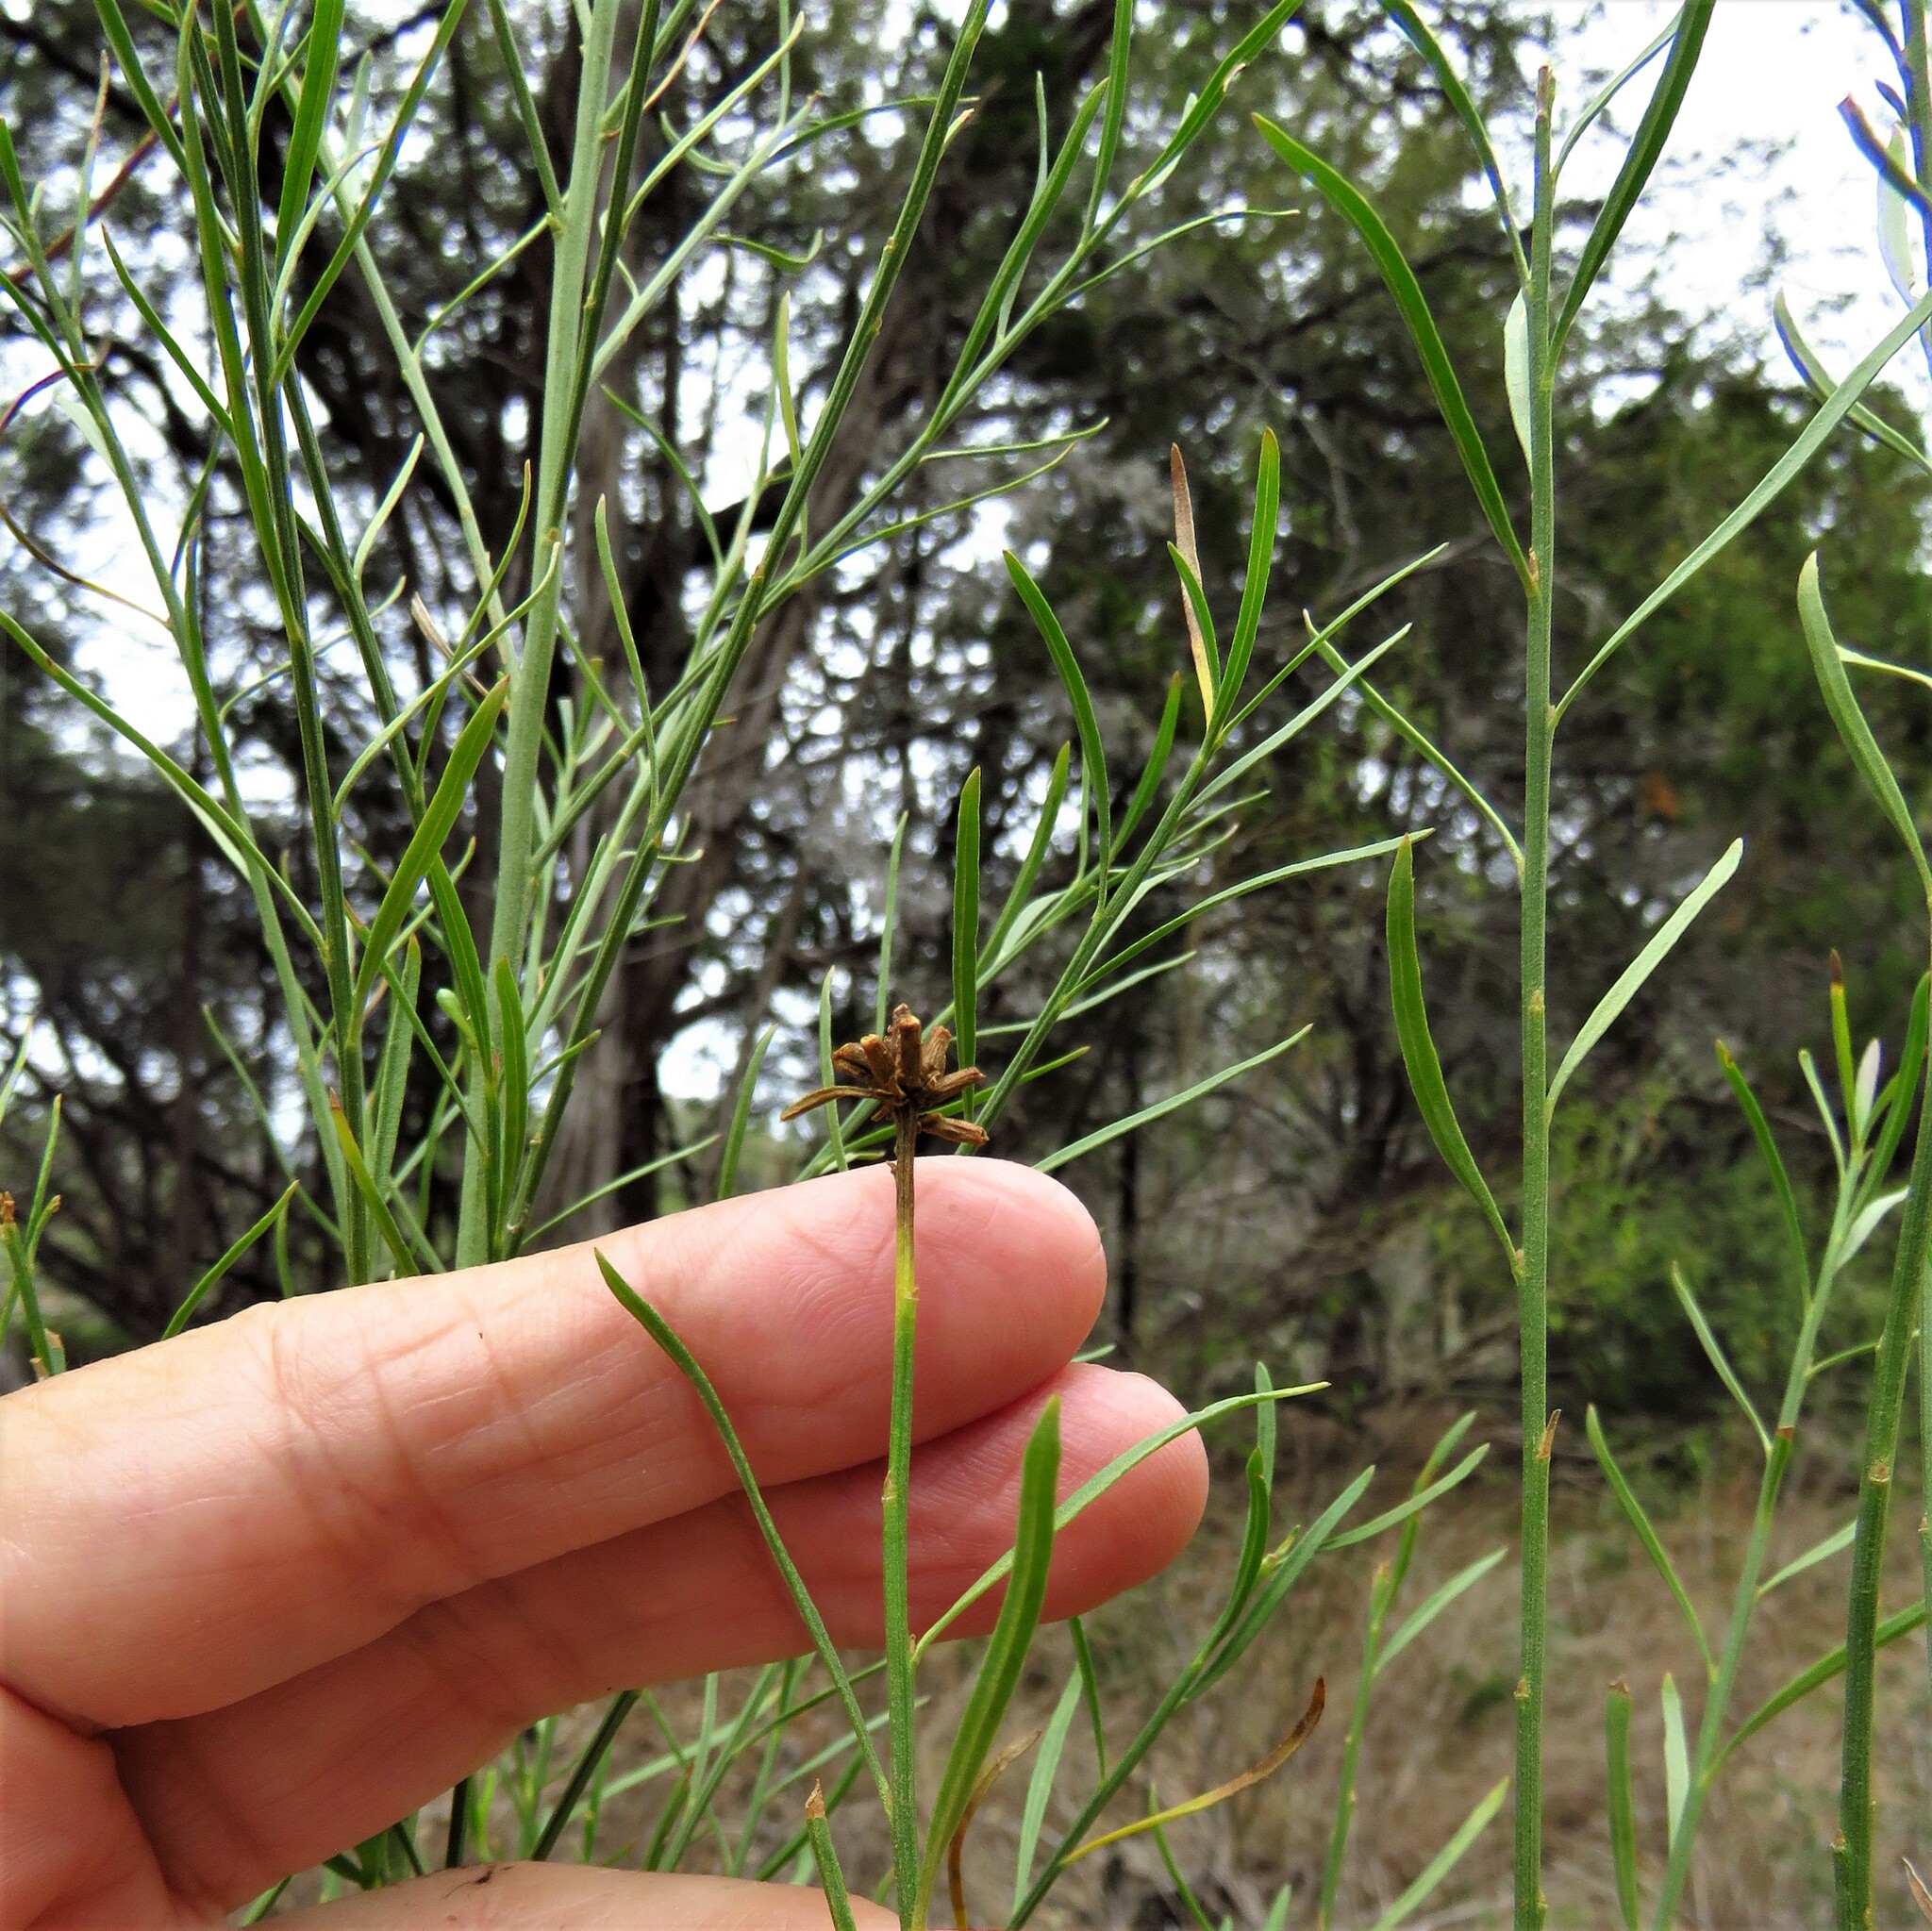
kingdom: Plantae
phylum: Tracheophyta
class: Magnoliopsida
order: Asterales
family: Asteraceae
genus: Baccharis
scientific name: Baccharis neglecta
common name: Roosevelt-weed
